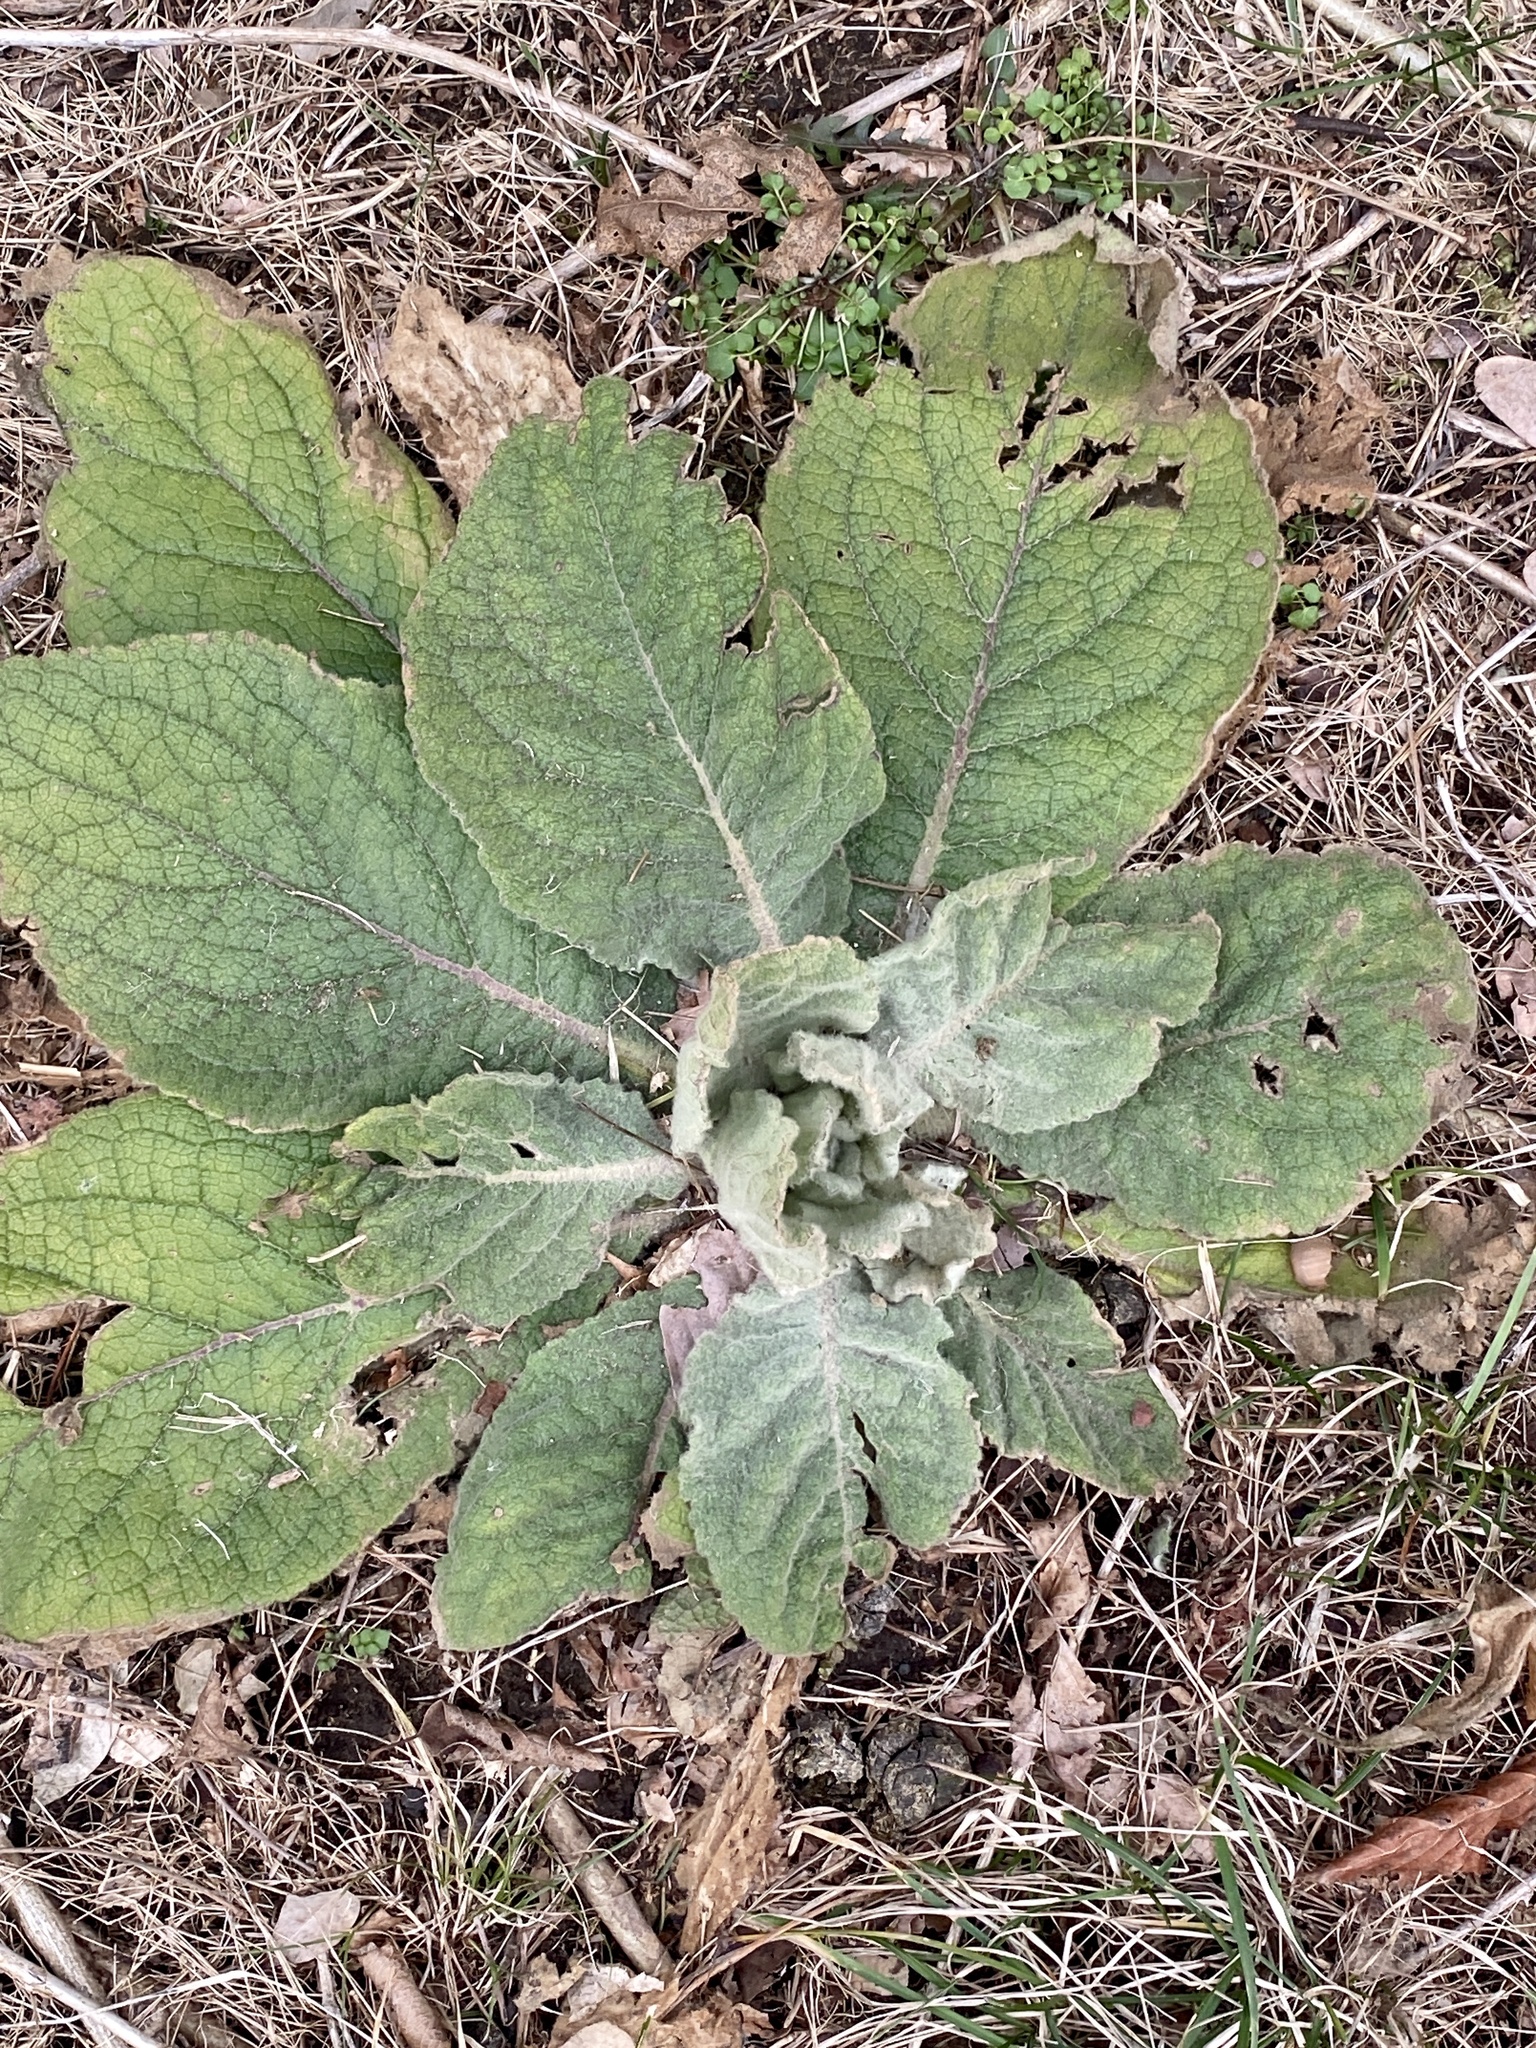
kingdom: Plantae
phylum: Tracheophyta
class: Magnoliopsida
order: Lamiales
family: Scrophulariaceae
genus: Verbascum
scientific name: Verbascum thapsus
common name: Common mullein
